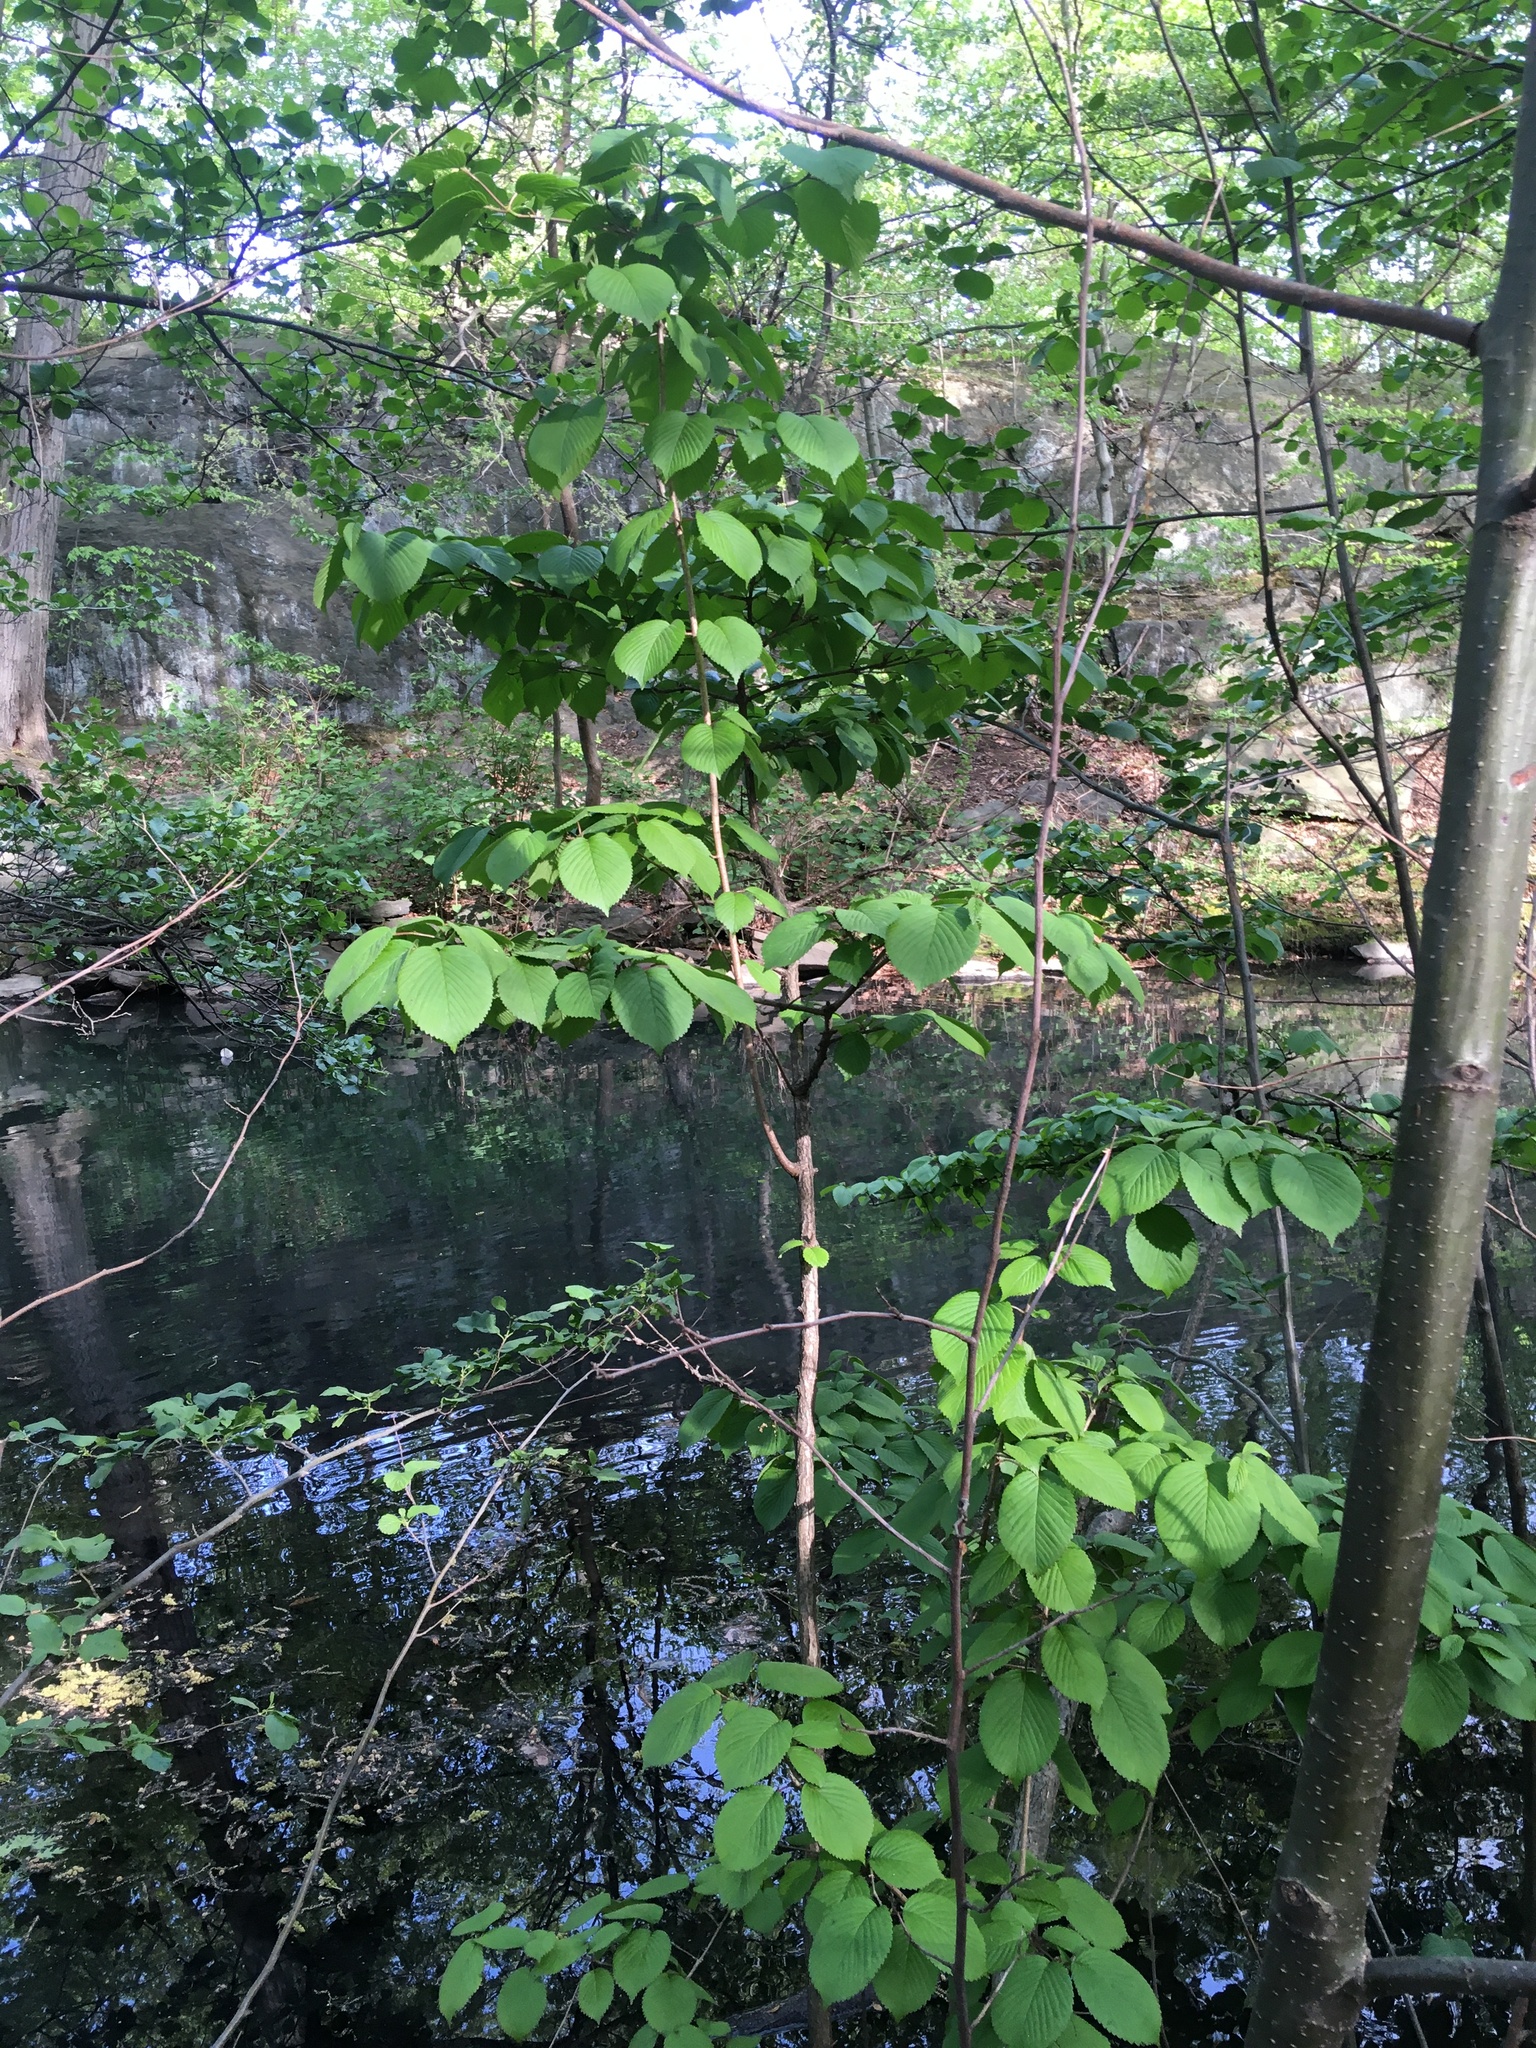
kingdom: Plantae
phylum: Tracheophyta
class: Magnoliopsida
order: Dipsacales
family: Viburnaceae
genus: Viburnum
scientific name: Viburnum plicatum
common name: Japanese snowball
